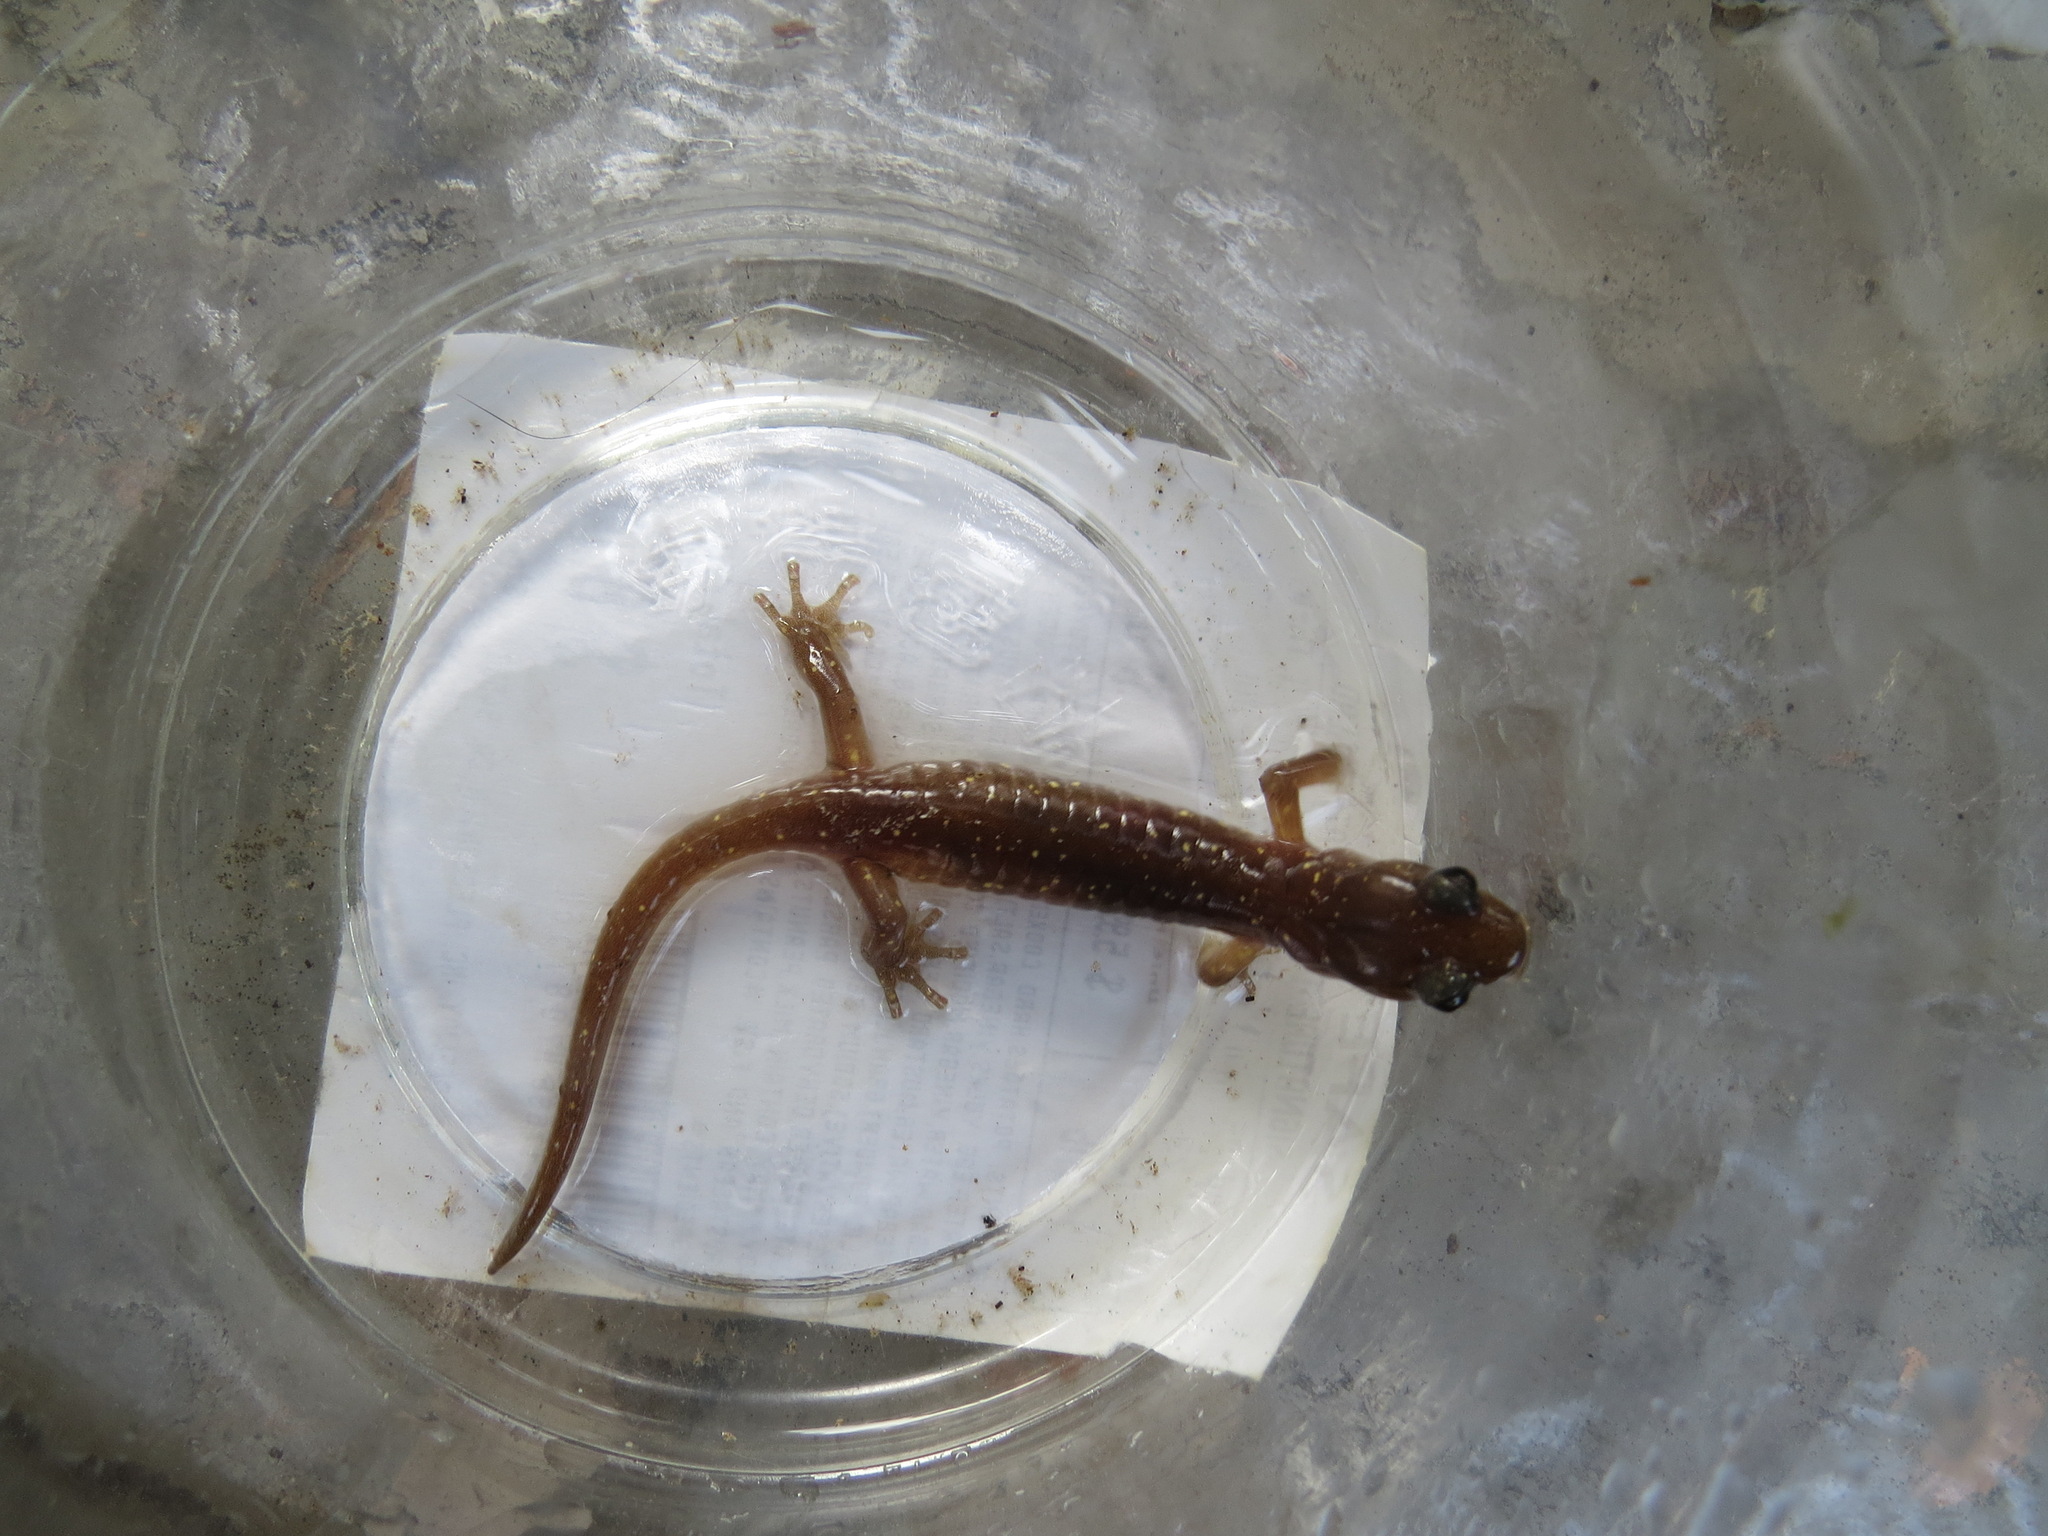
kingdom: Animalia
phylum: Chordata
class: Amphibia
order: Caudata
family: Plethodontidae
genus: Aneides
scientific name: Aneides lugubris
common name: Arboreal salamander
